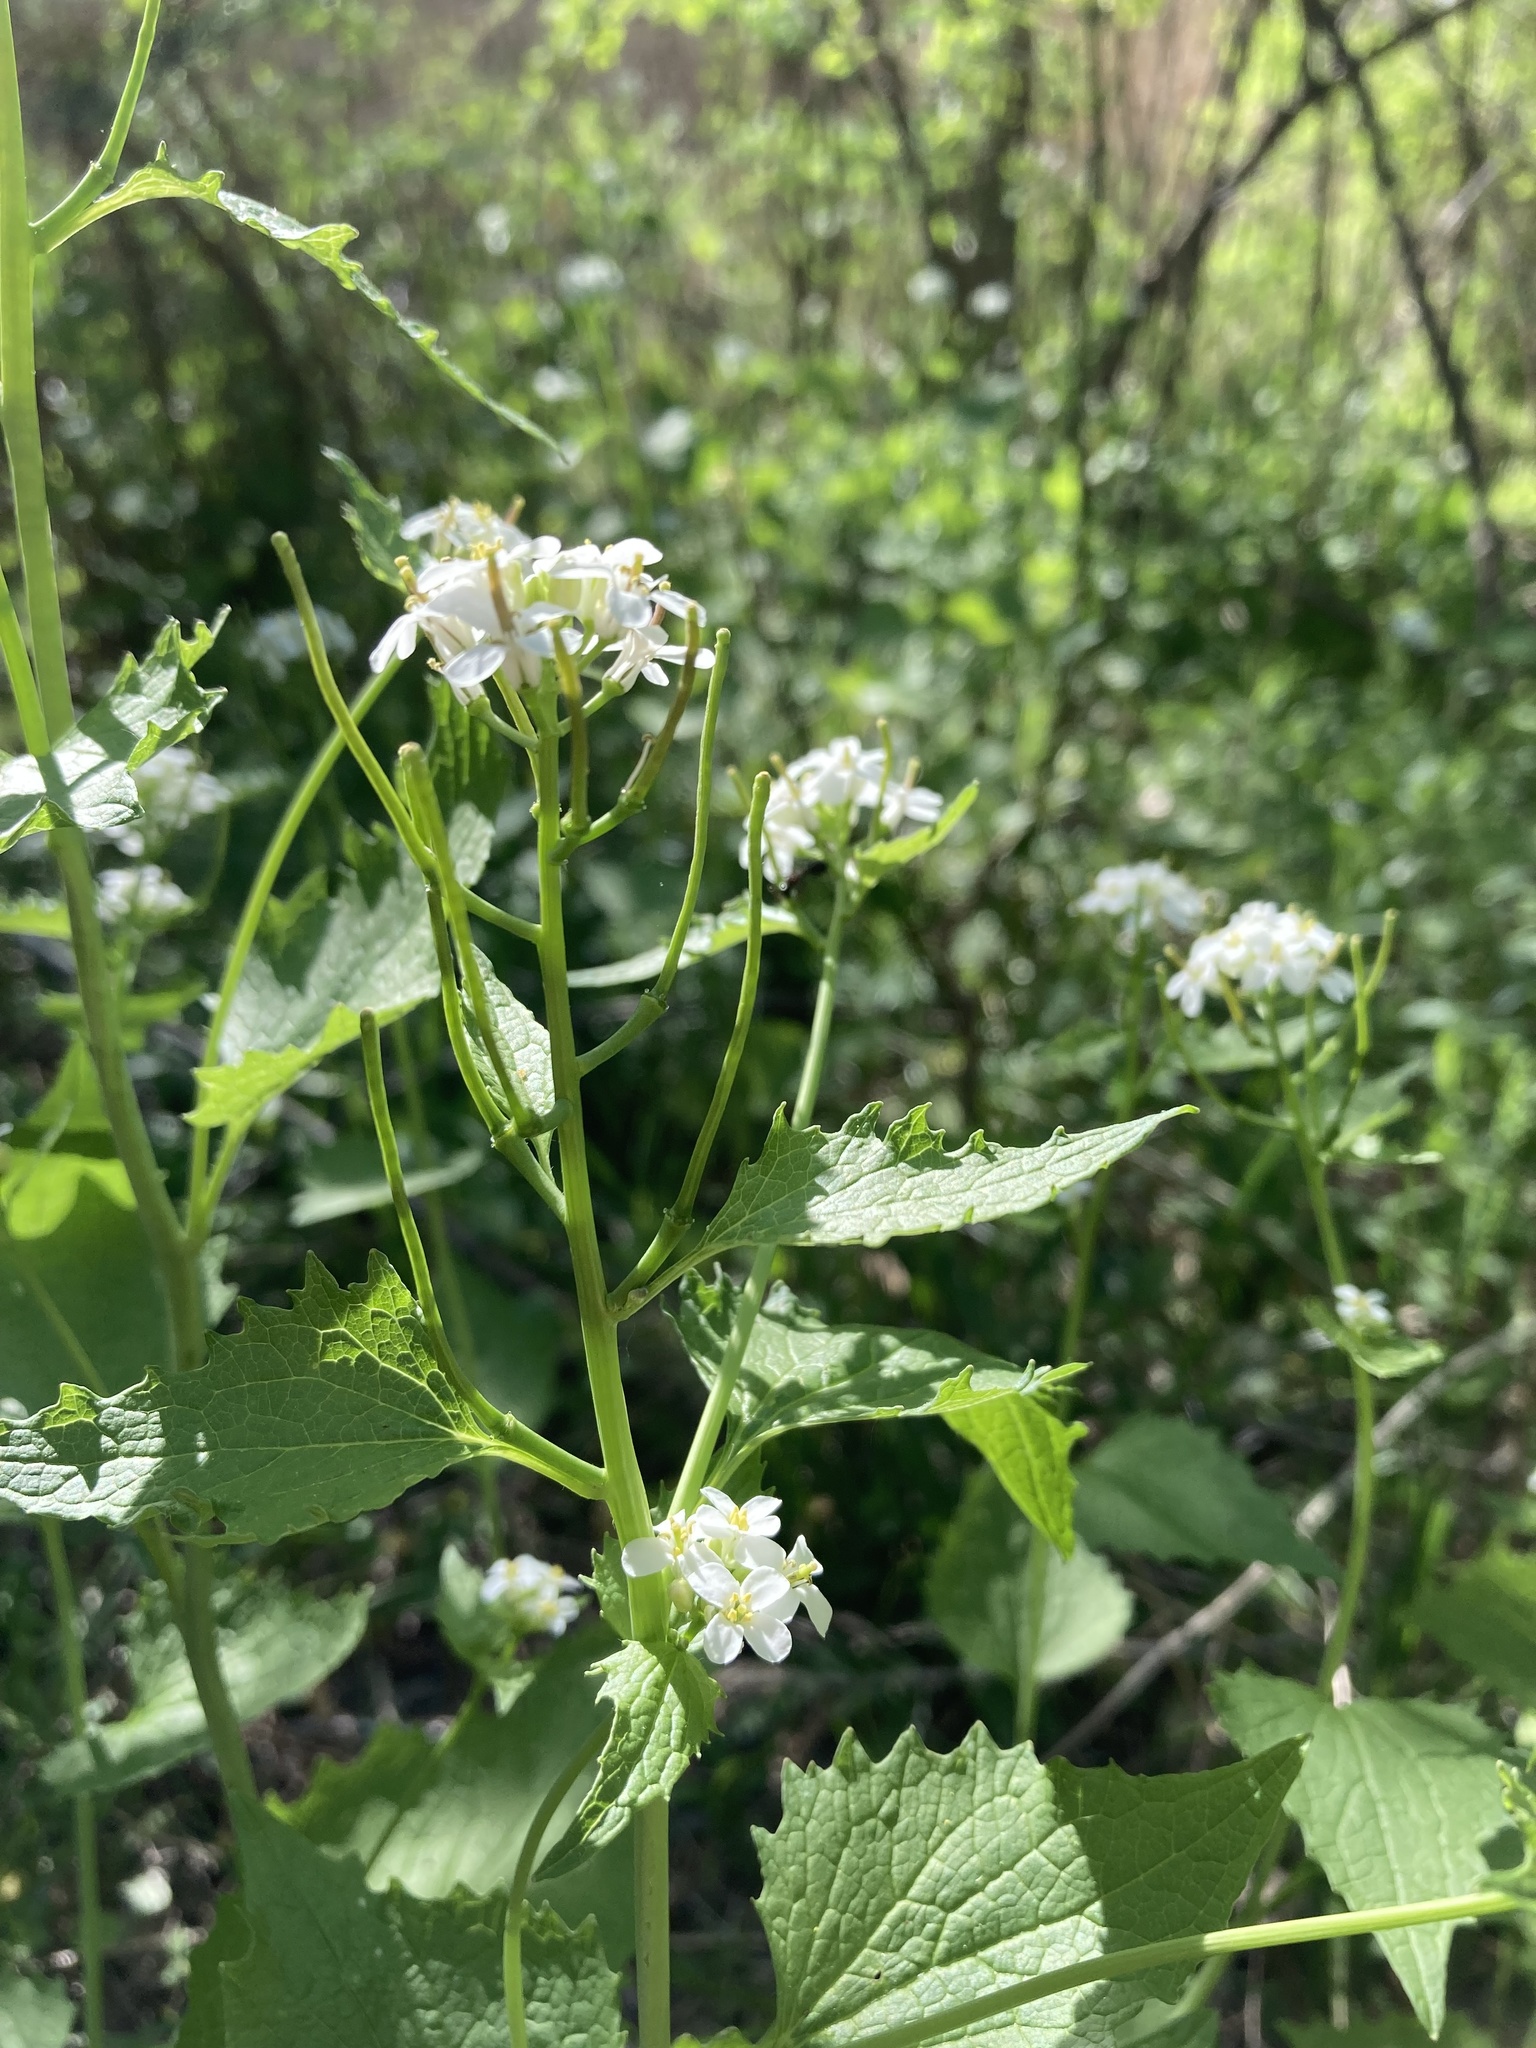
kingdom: Plantae
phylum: Tracheophyta
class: Magnoliopsida
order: Brassicales
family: Brassicaceae
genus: Alliaria
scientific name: Alliaria petiolata
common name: Garlic mustard
